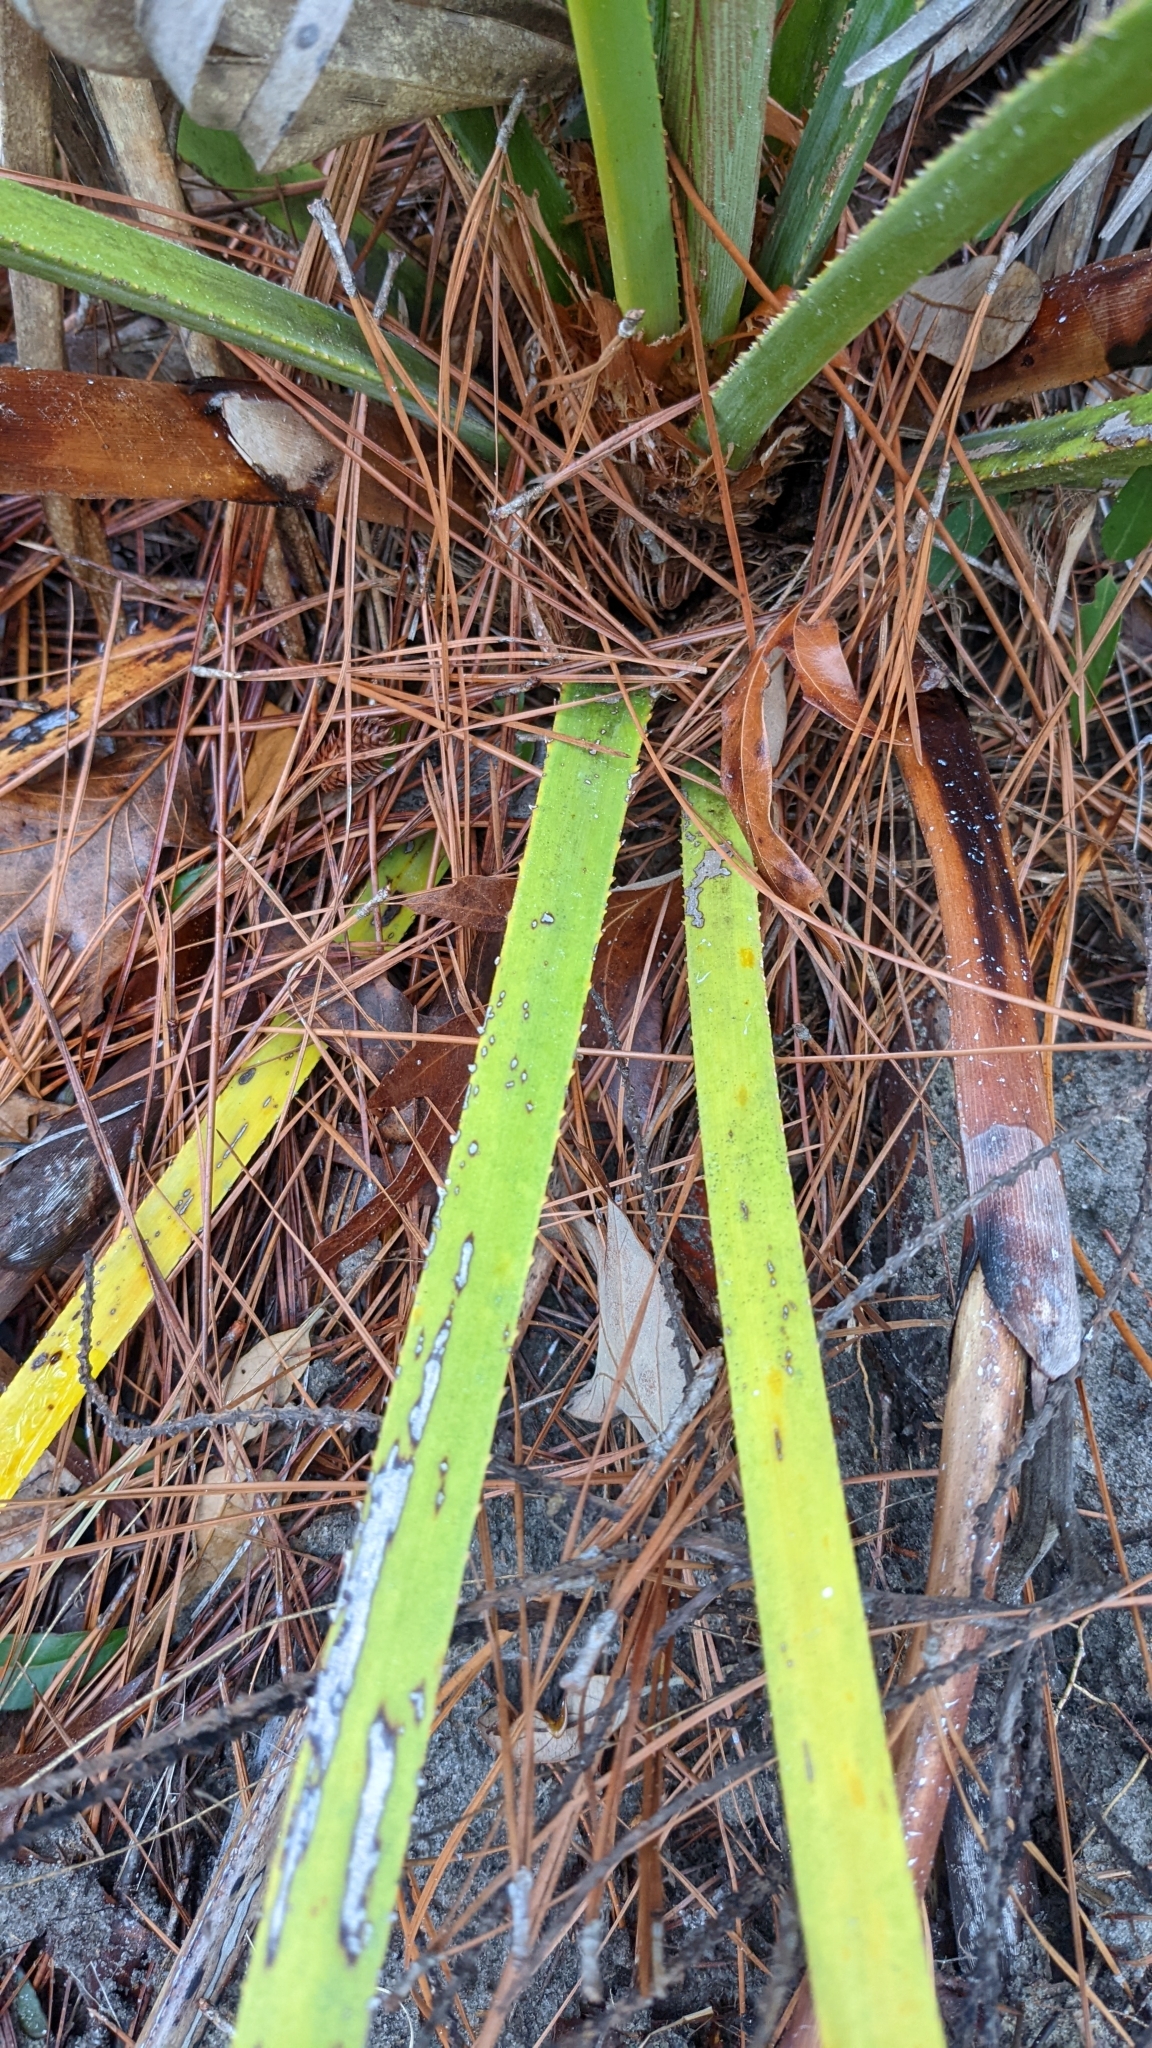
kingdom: Plantae
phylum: Tracheophyta
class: Liliopsida
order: Arecales
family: Arecaceae
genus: Serenoa
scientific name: Serenoa repens
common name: Saw-palmetto
